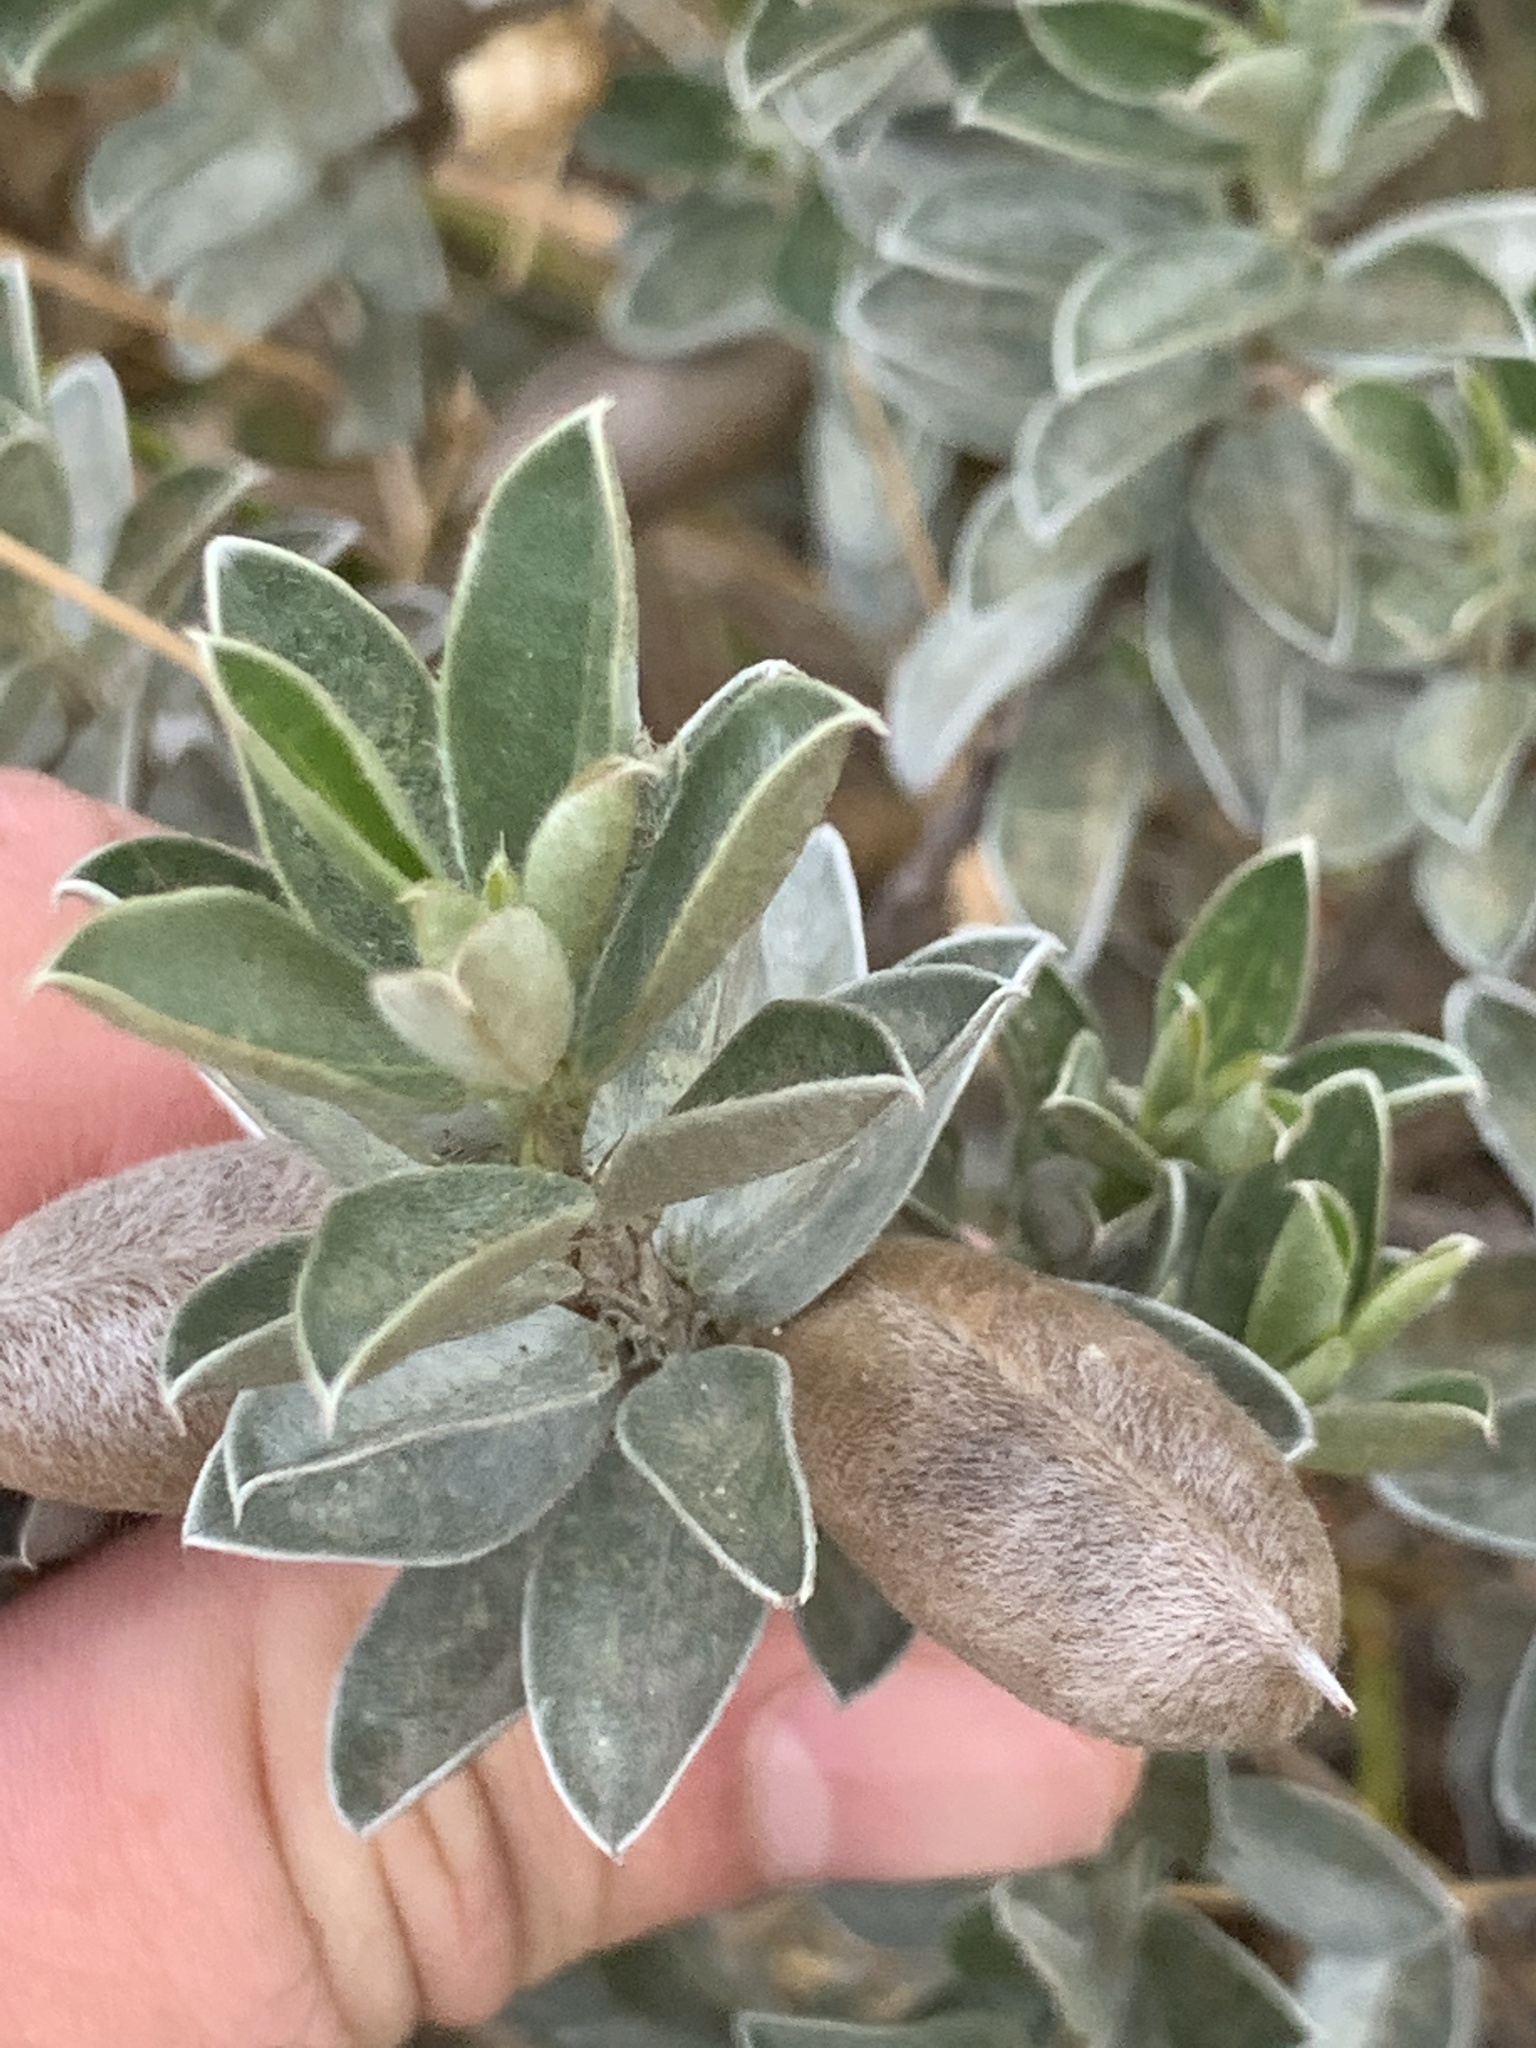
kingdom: Plantae
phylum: Tracheophyta
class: Magnoliopsida
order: Fabales
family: Fabaceae
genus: Podalyria
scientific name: Podalyria sericea
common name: Silver podalyria
